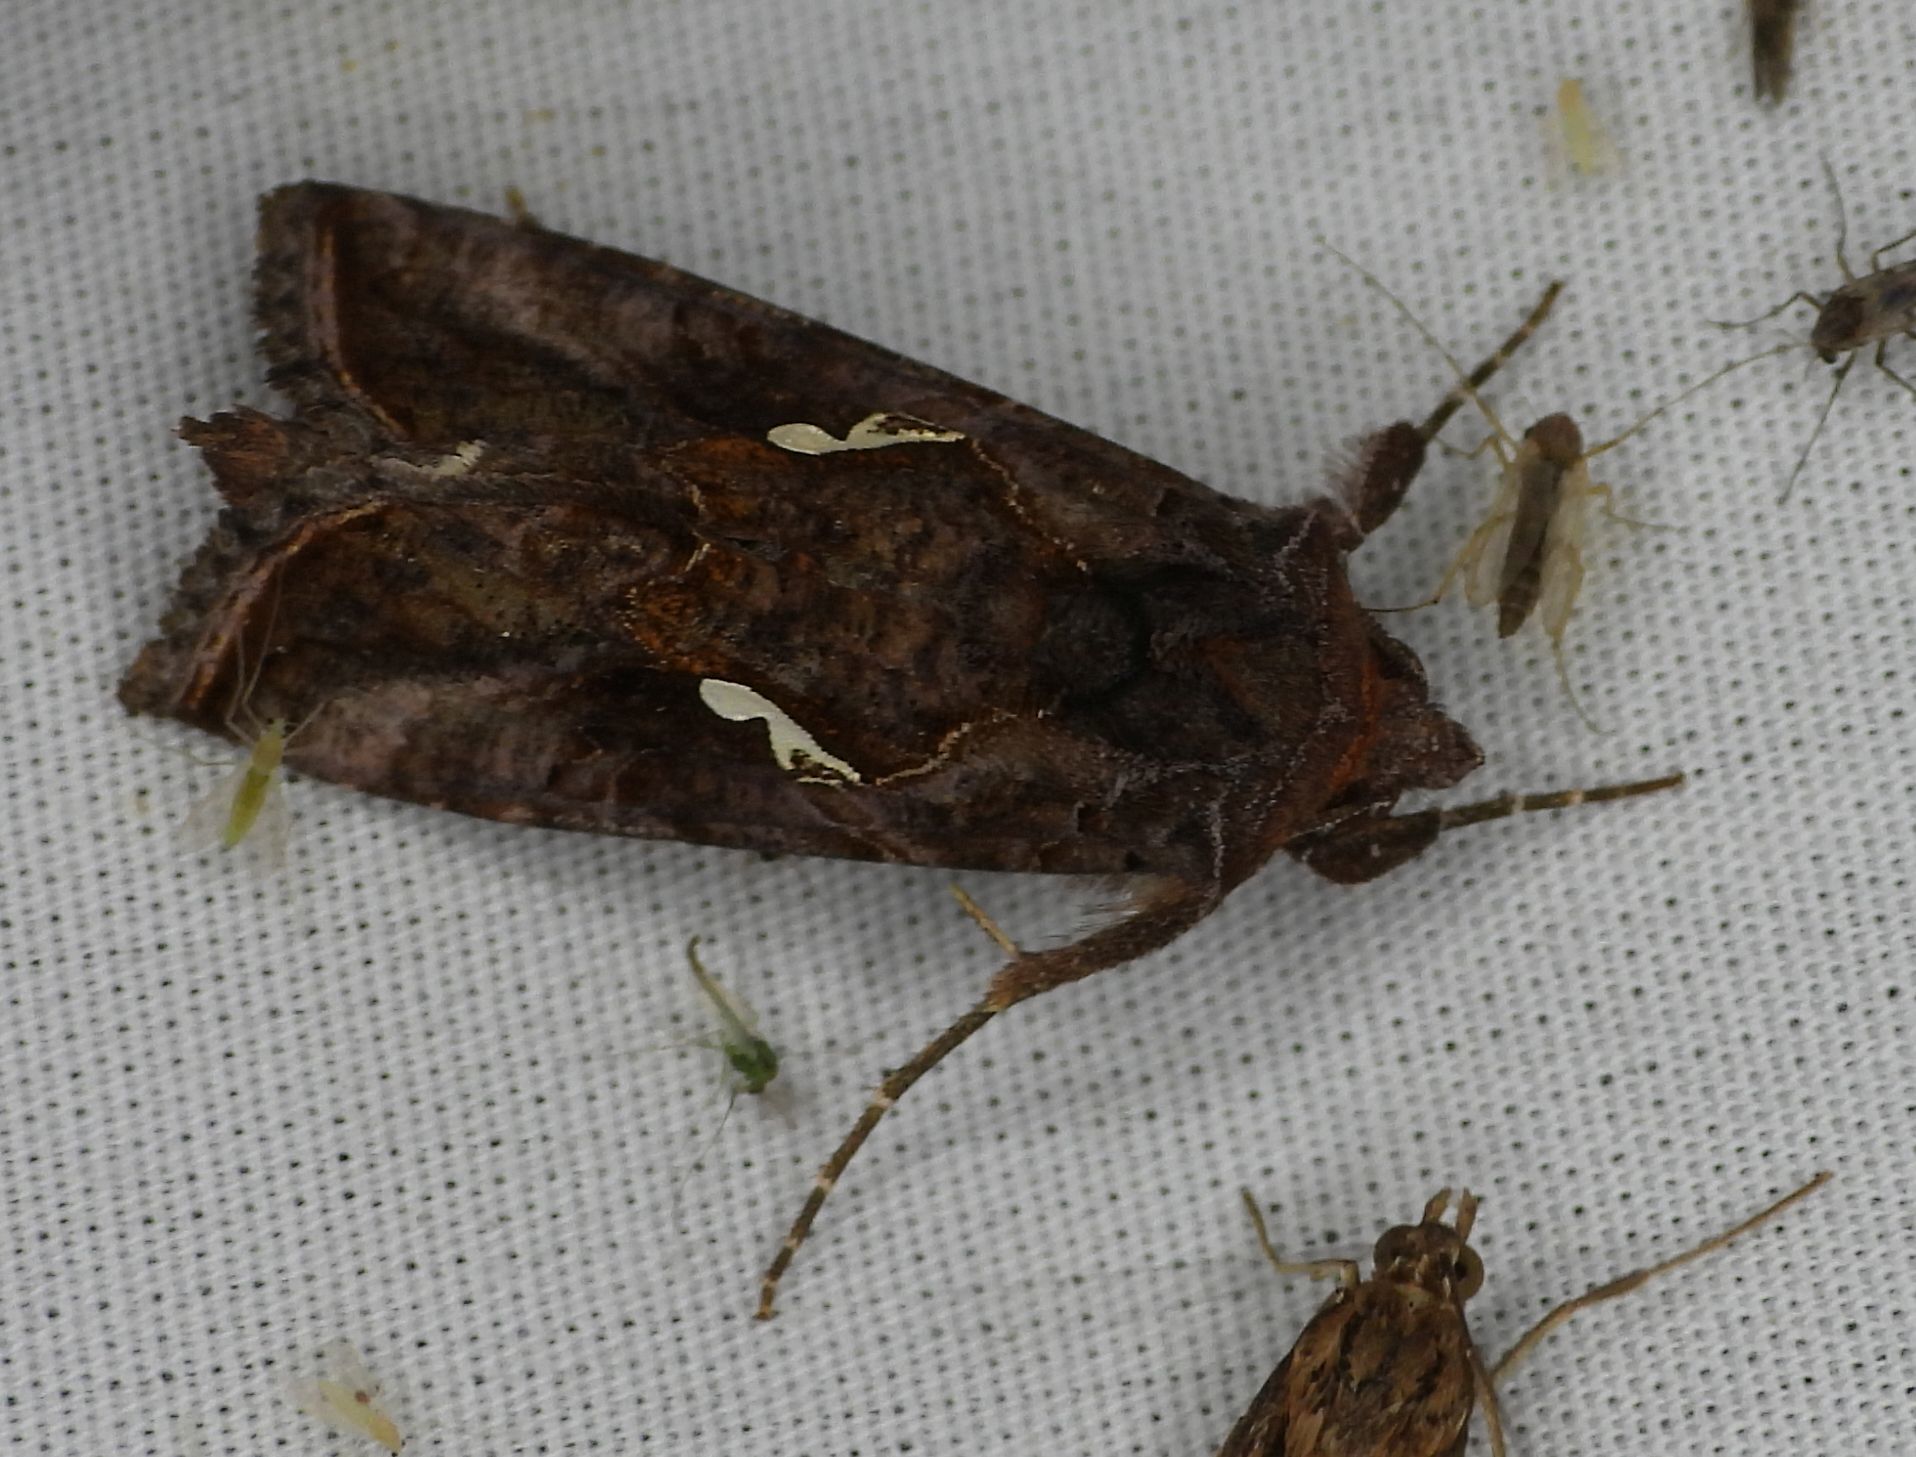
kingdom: Animalia
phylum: Arthropoda
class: Insecta
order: Lepidoptera
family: Noctuidae
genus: Autographa
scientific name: Autographa precationis
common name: Common looper moth
